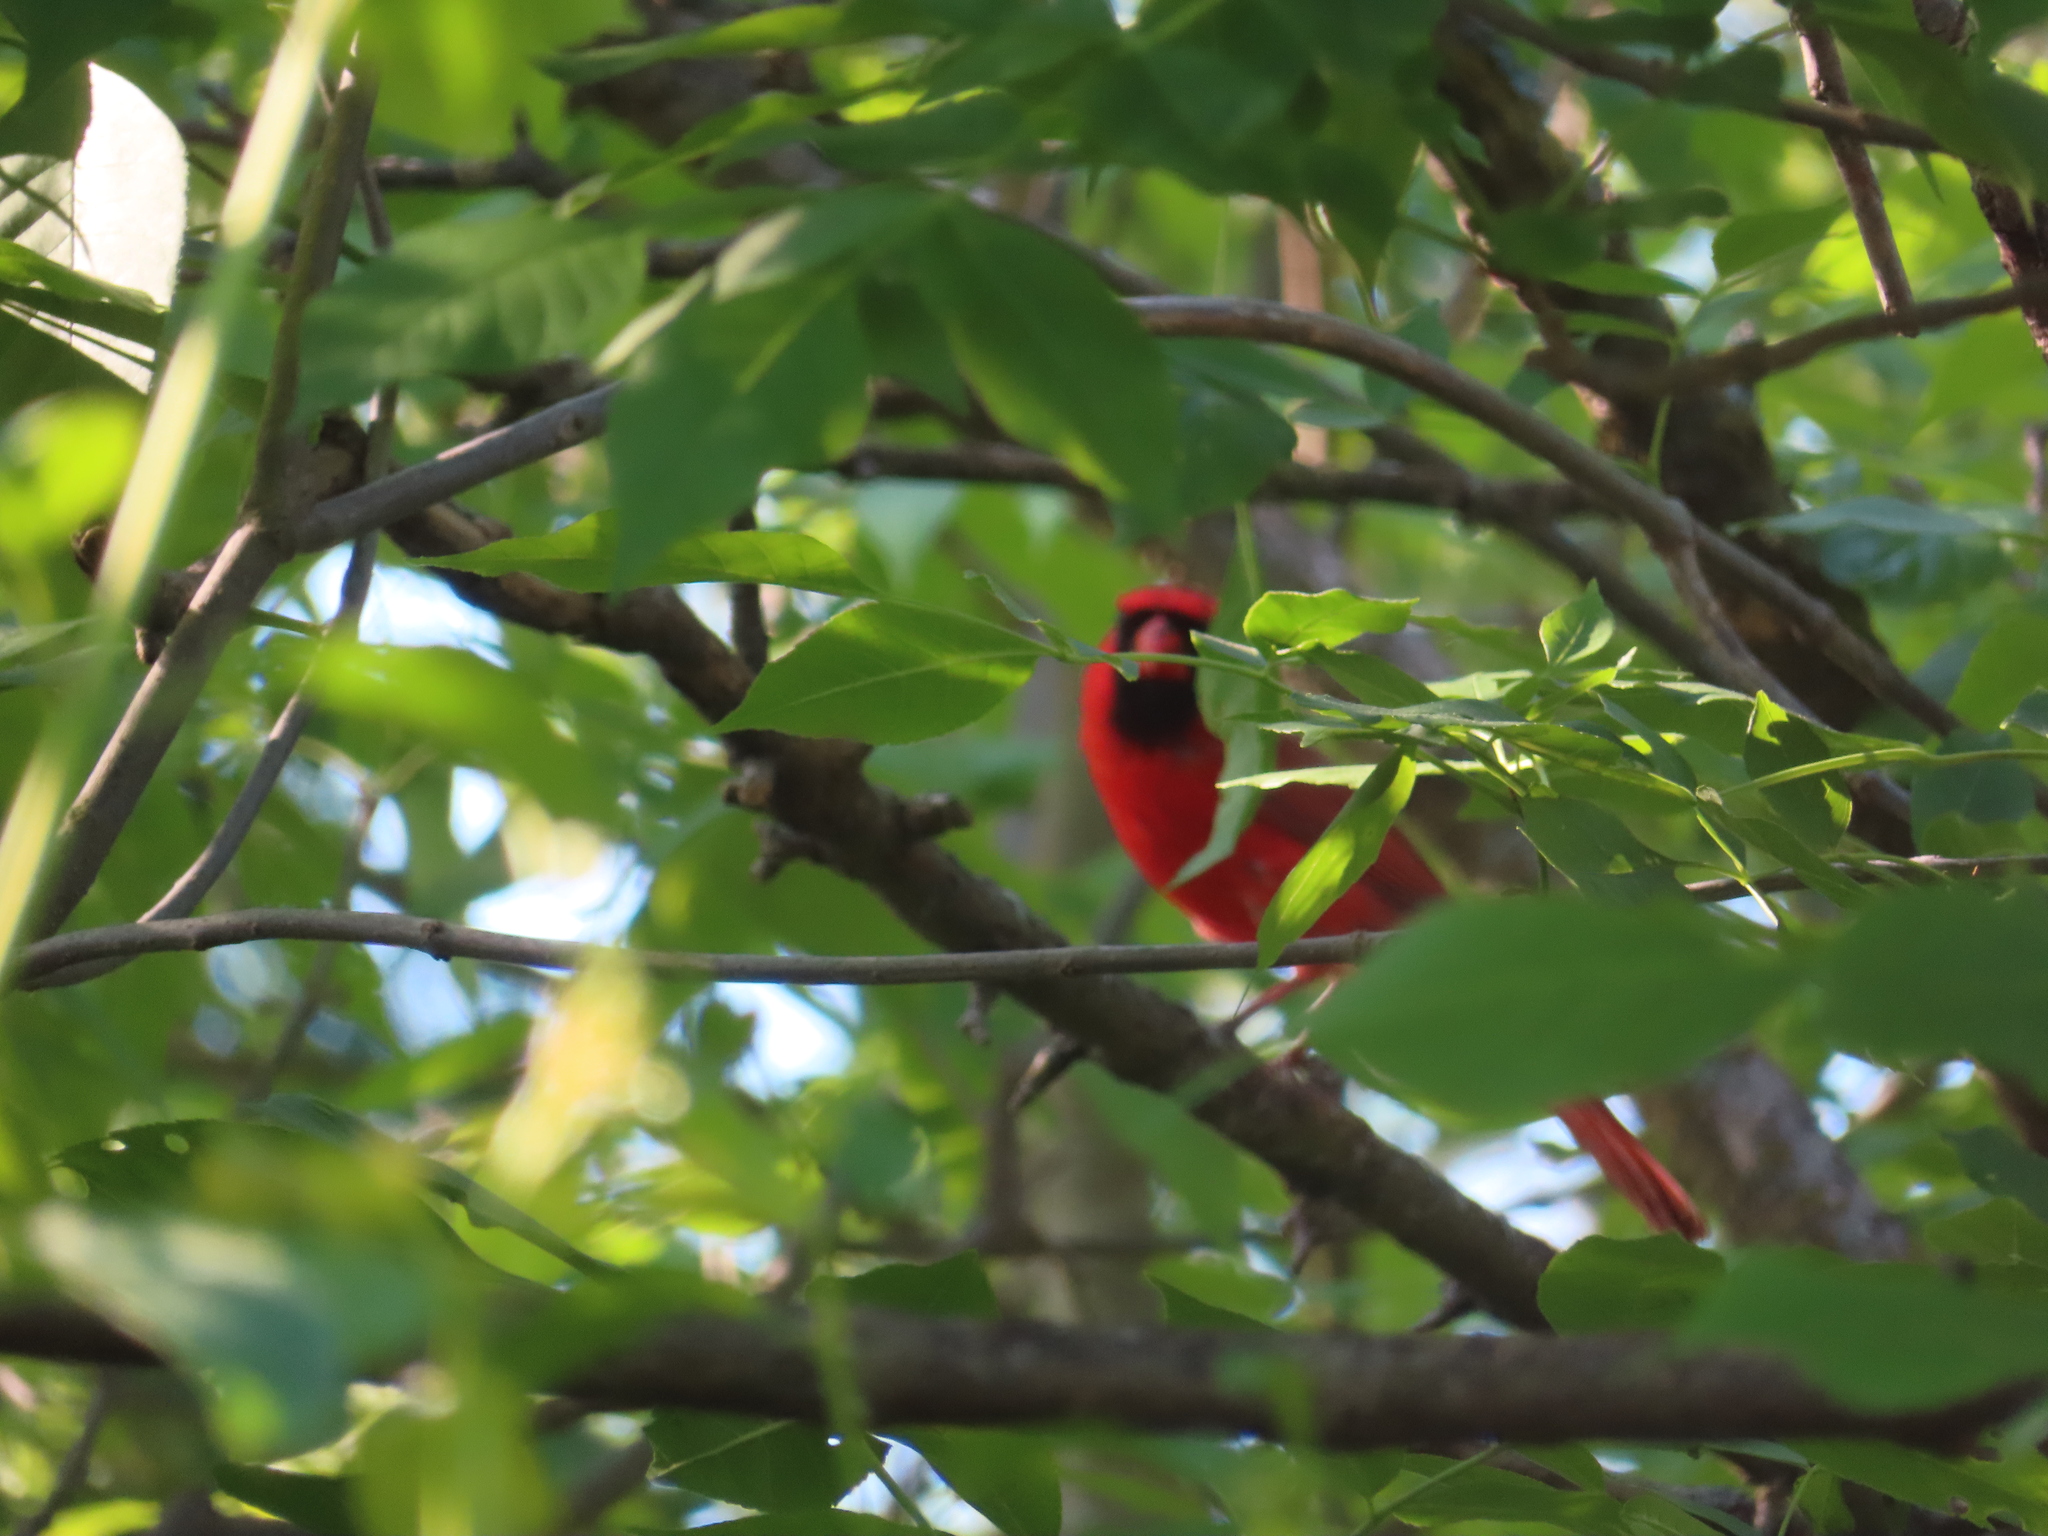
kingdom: Animalia
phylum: Chordata
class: Aves
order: Passeriformes
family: Cardinalidae
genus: Cardinalis
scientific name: Cardinalis cardinalis
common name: Northern cardinal
